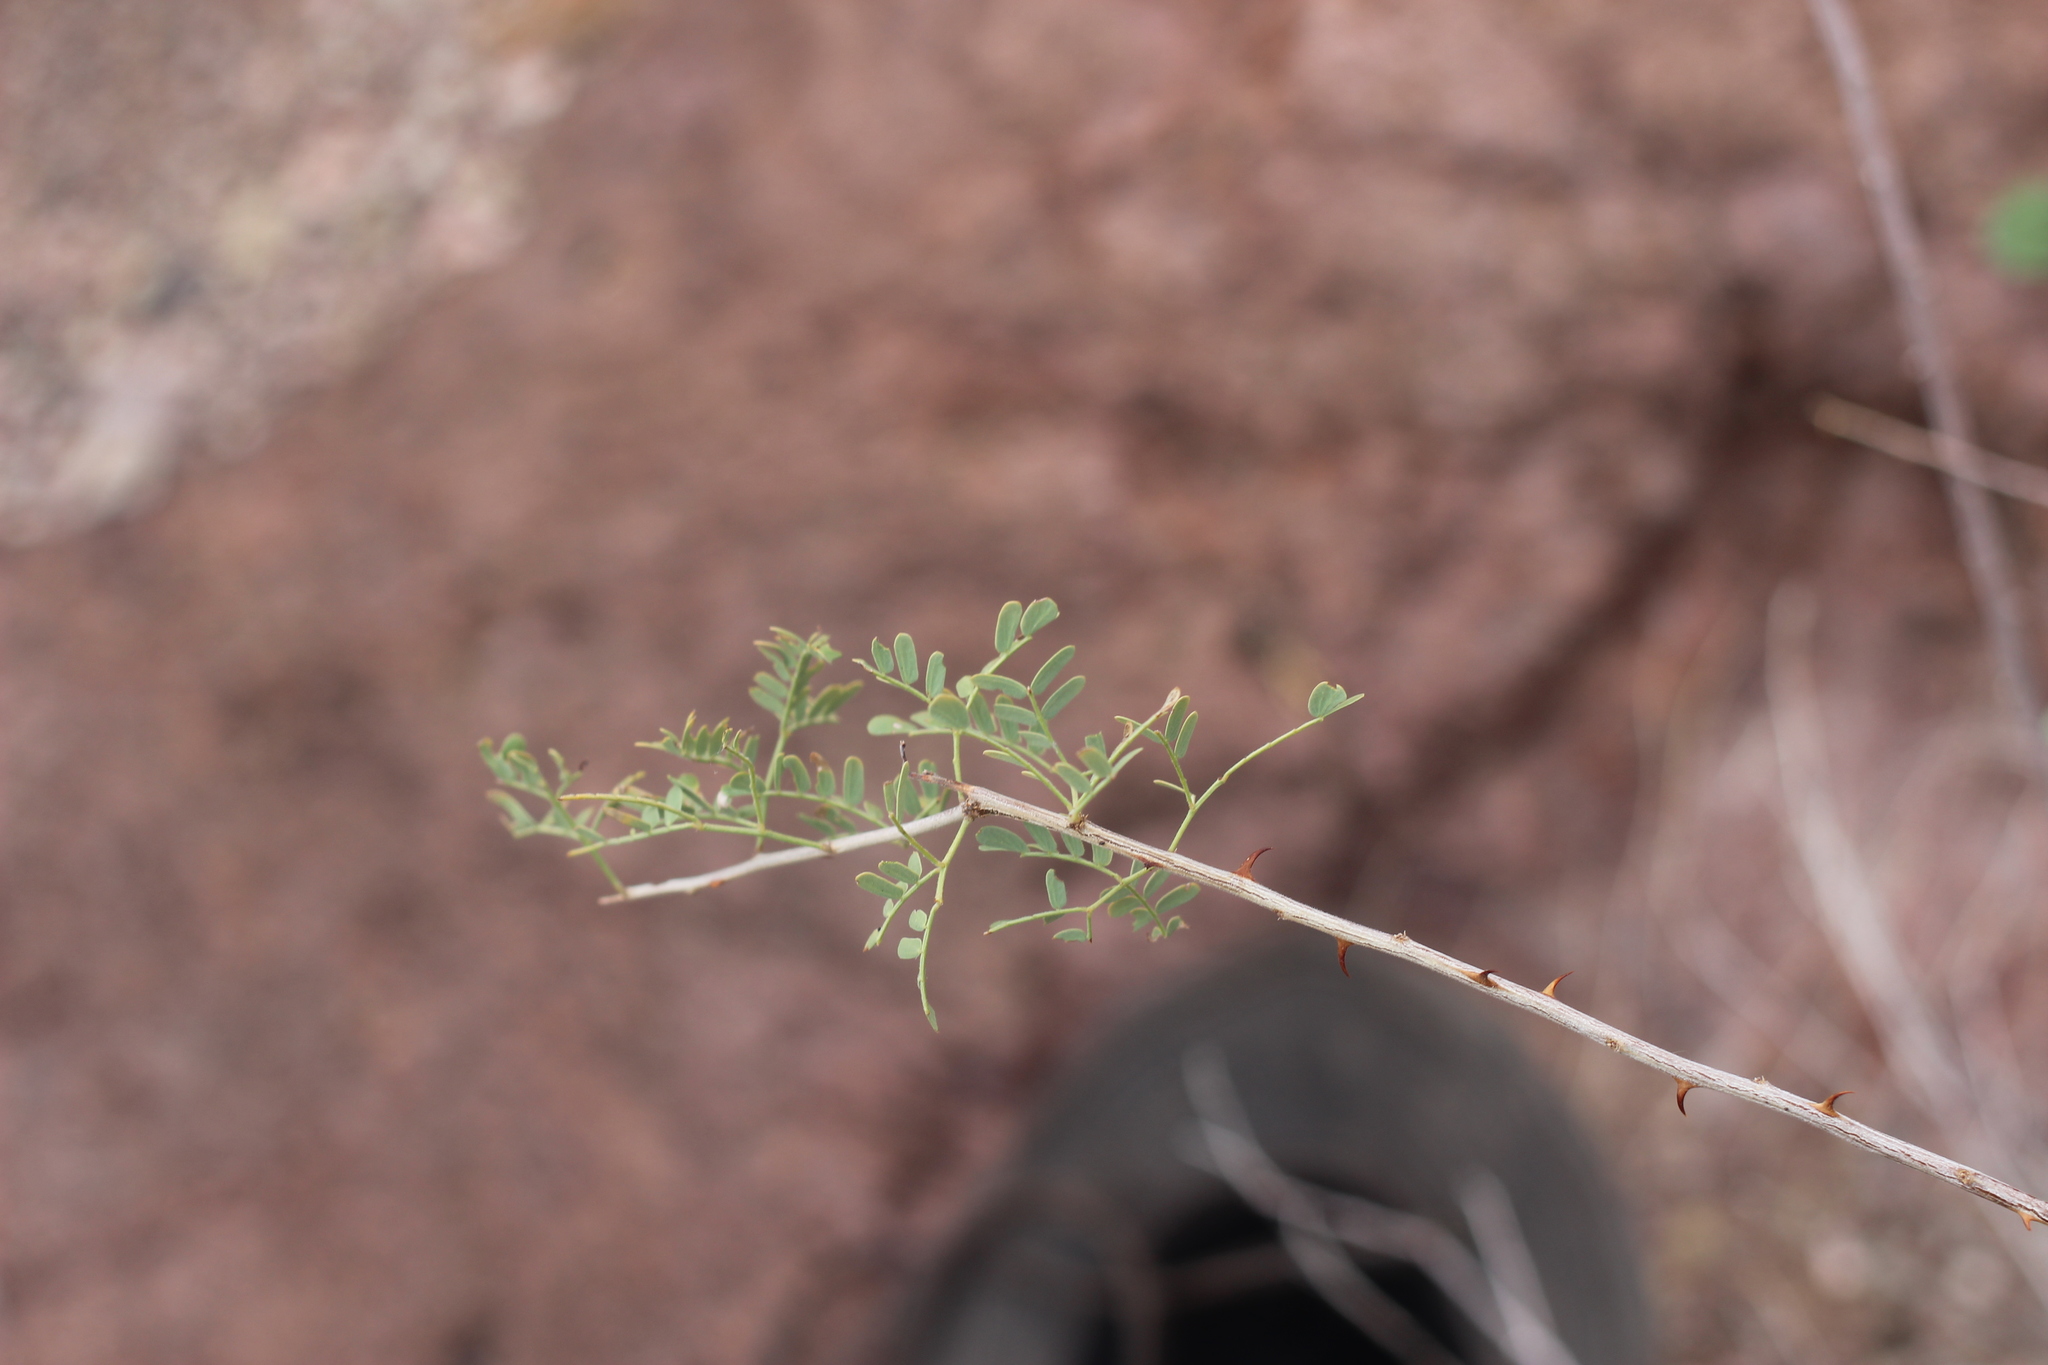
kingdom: Plantae
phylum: Tracheophyta
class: Magnoliopsida
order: Fabales
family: Fabaceae
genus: Senegalia
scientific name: Senegalia greggii
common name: Texas-mimosa
